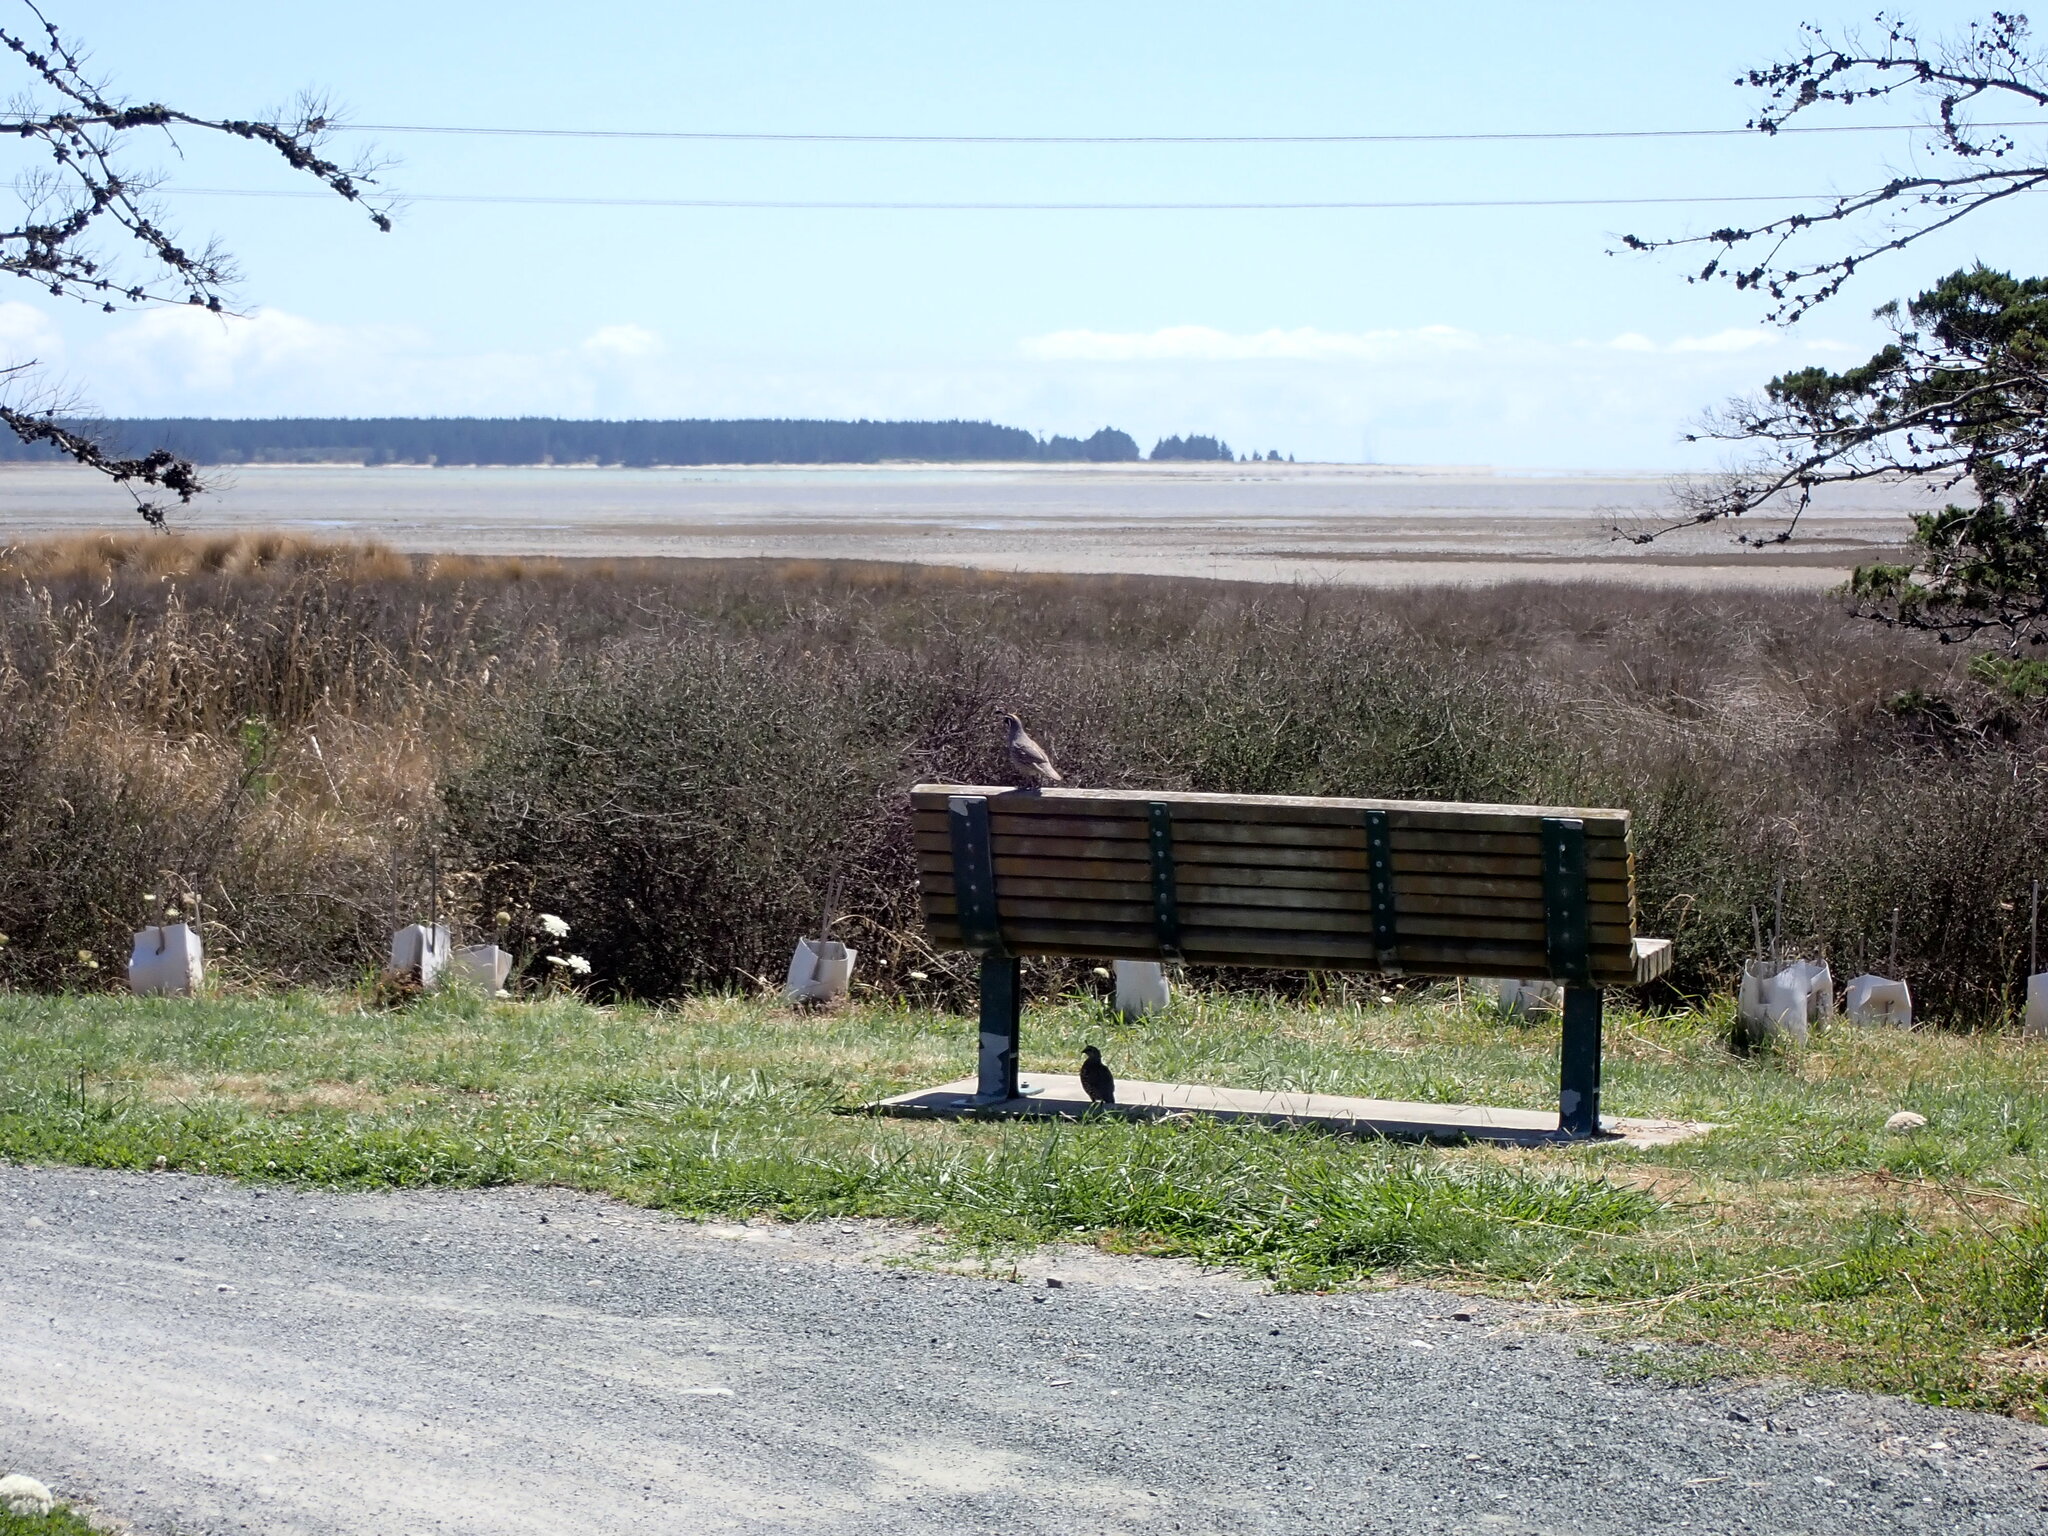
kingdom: Animalia
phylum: Chordata
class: Aves
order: Galliformes
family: Odontophoridae
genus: Callipepla
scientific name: Callipepla californica
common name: California quail
